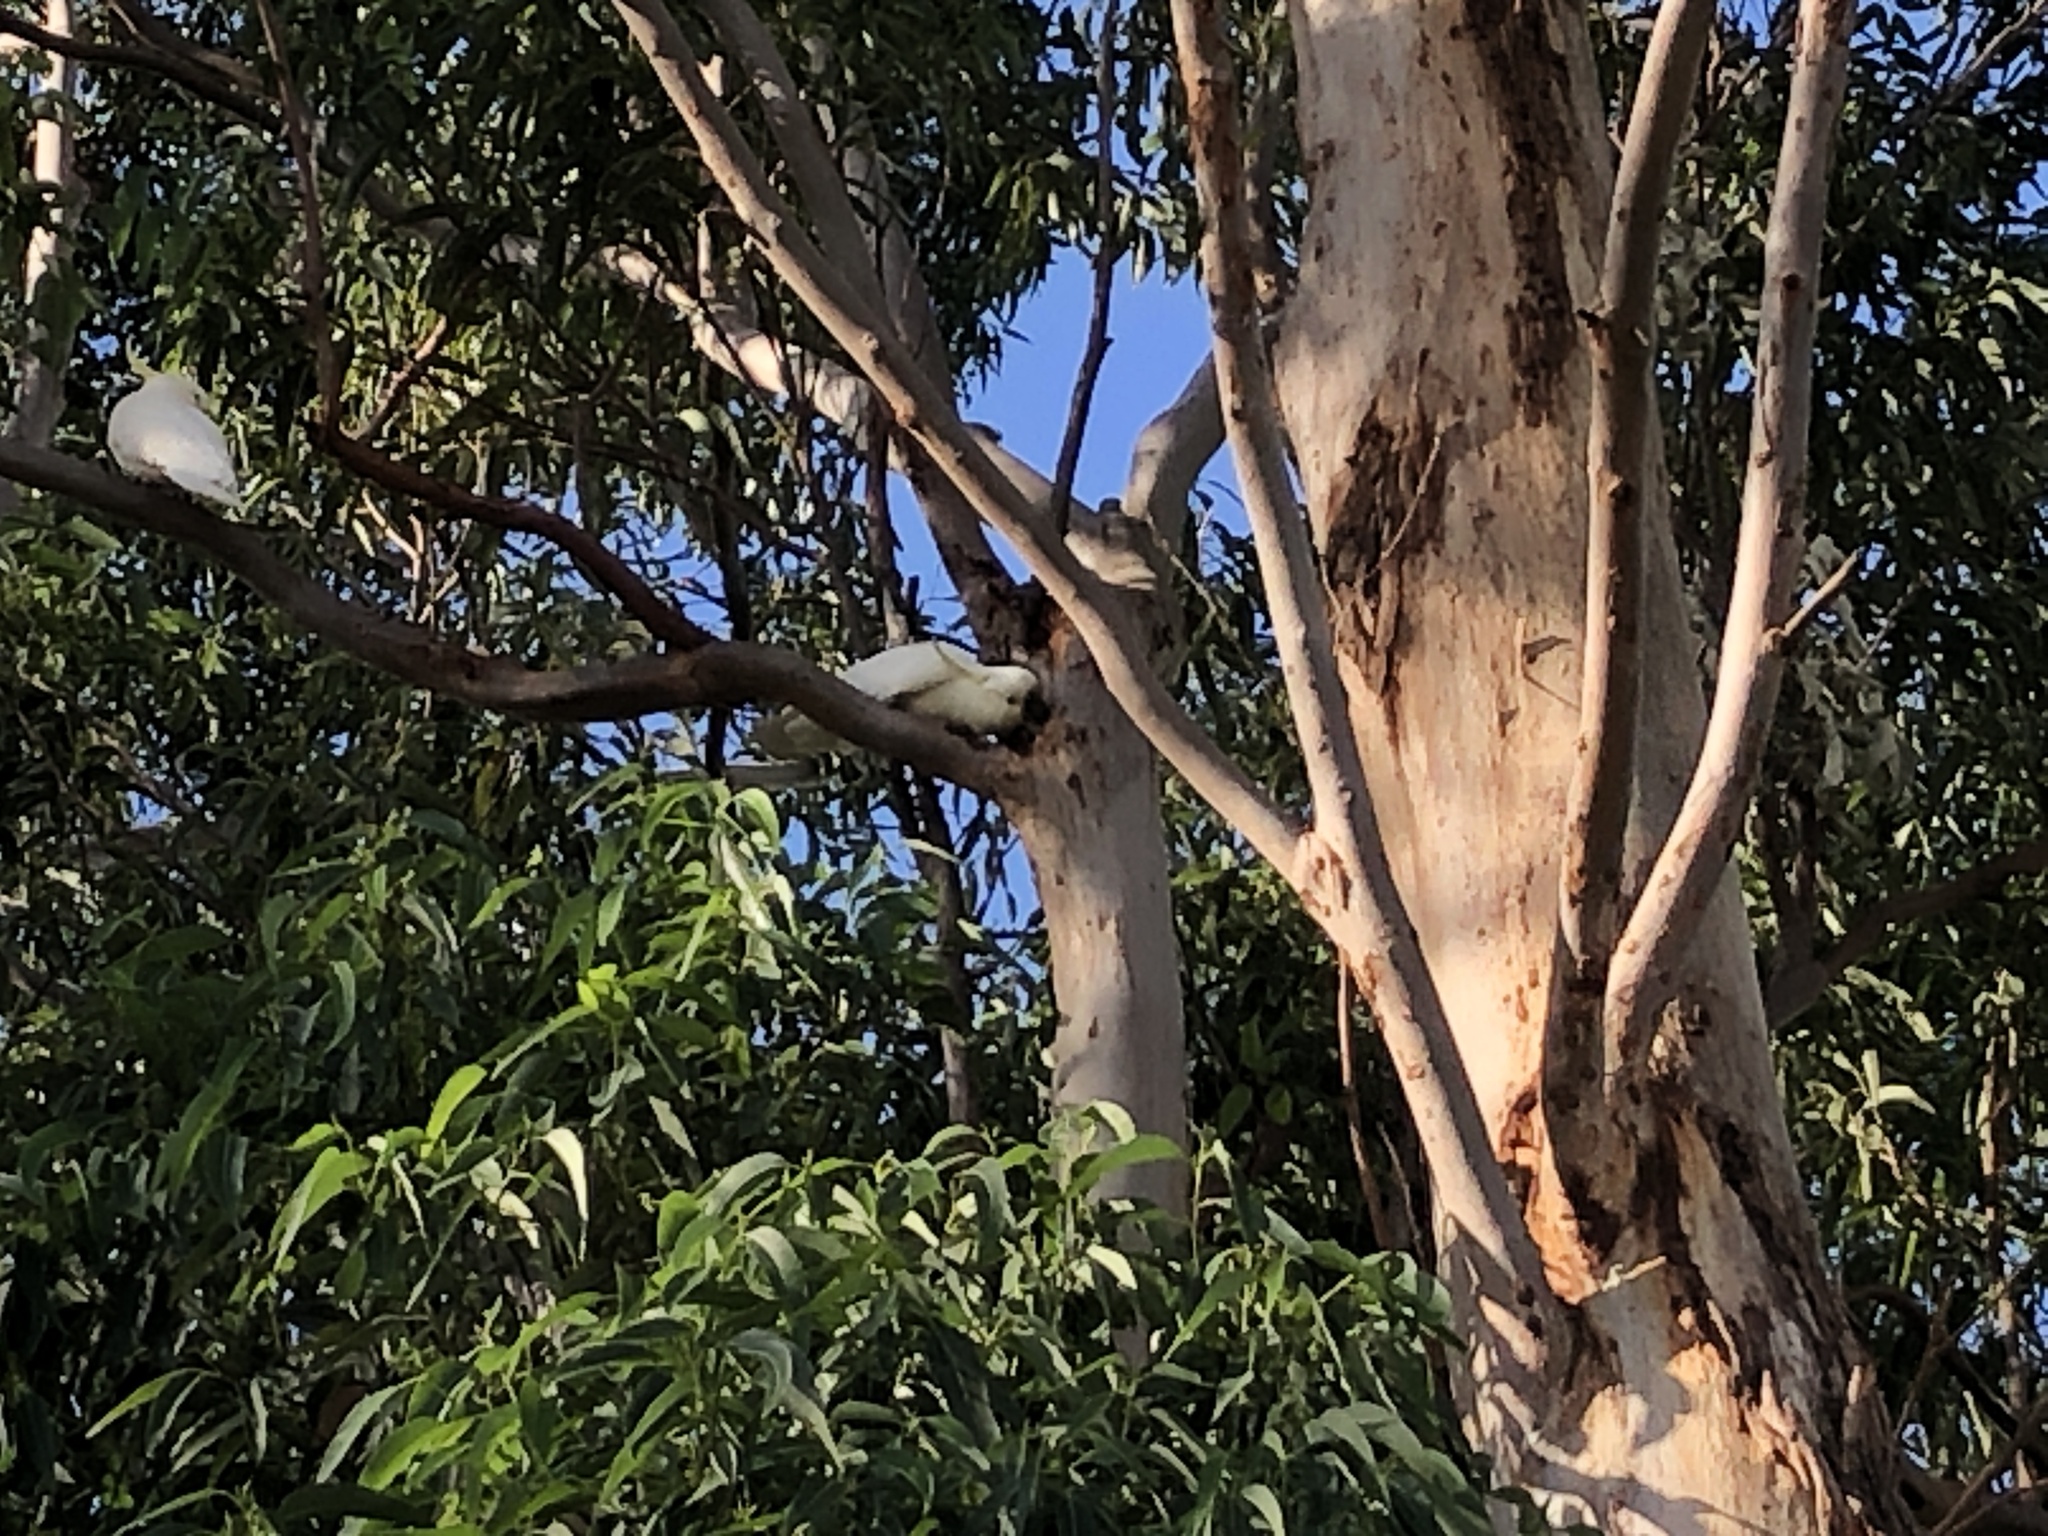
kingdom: Animalia
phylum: Chordata
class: Aves
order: Psittaciformes
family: Psittacidae
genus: Cacatua
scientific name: Cacatua galerita
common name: Sulphur-crested cockatoo
